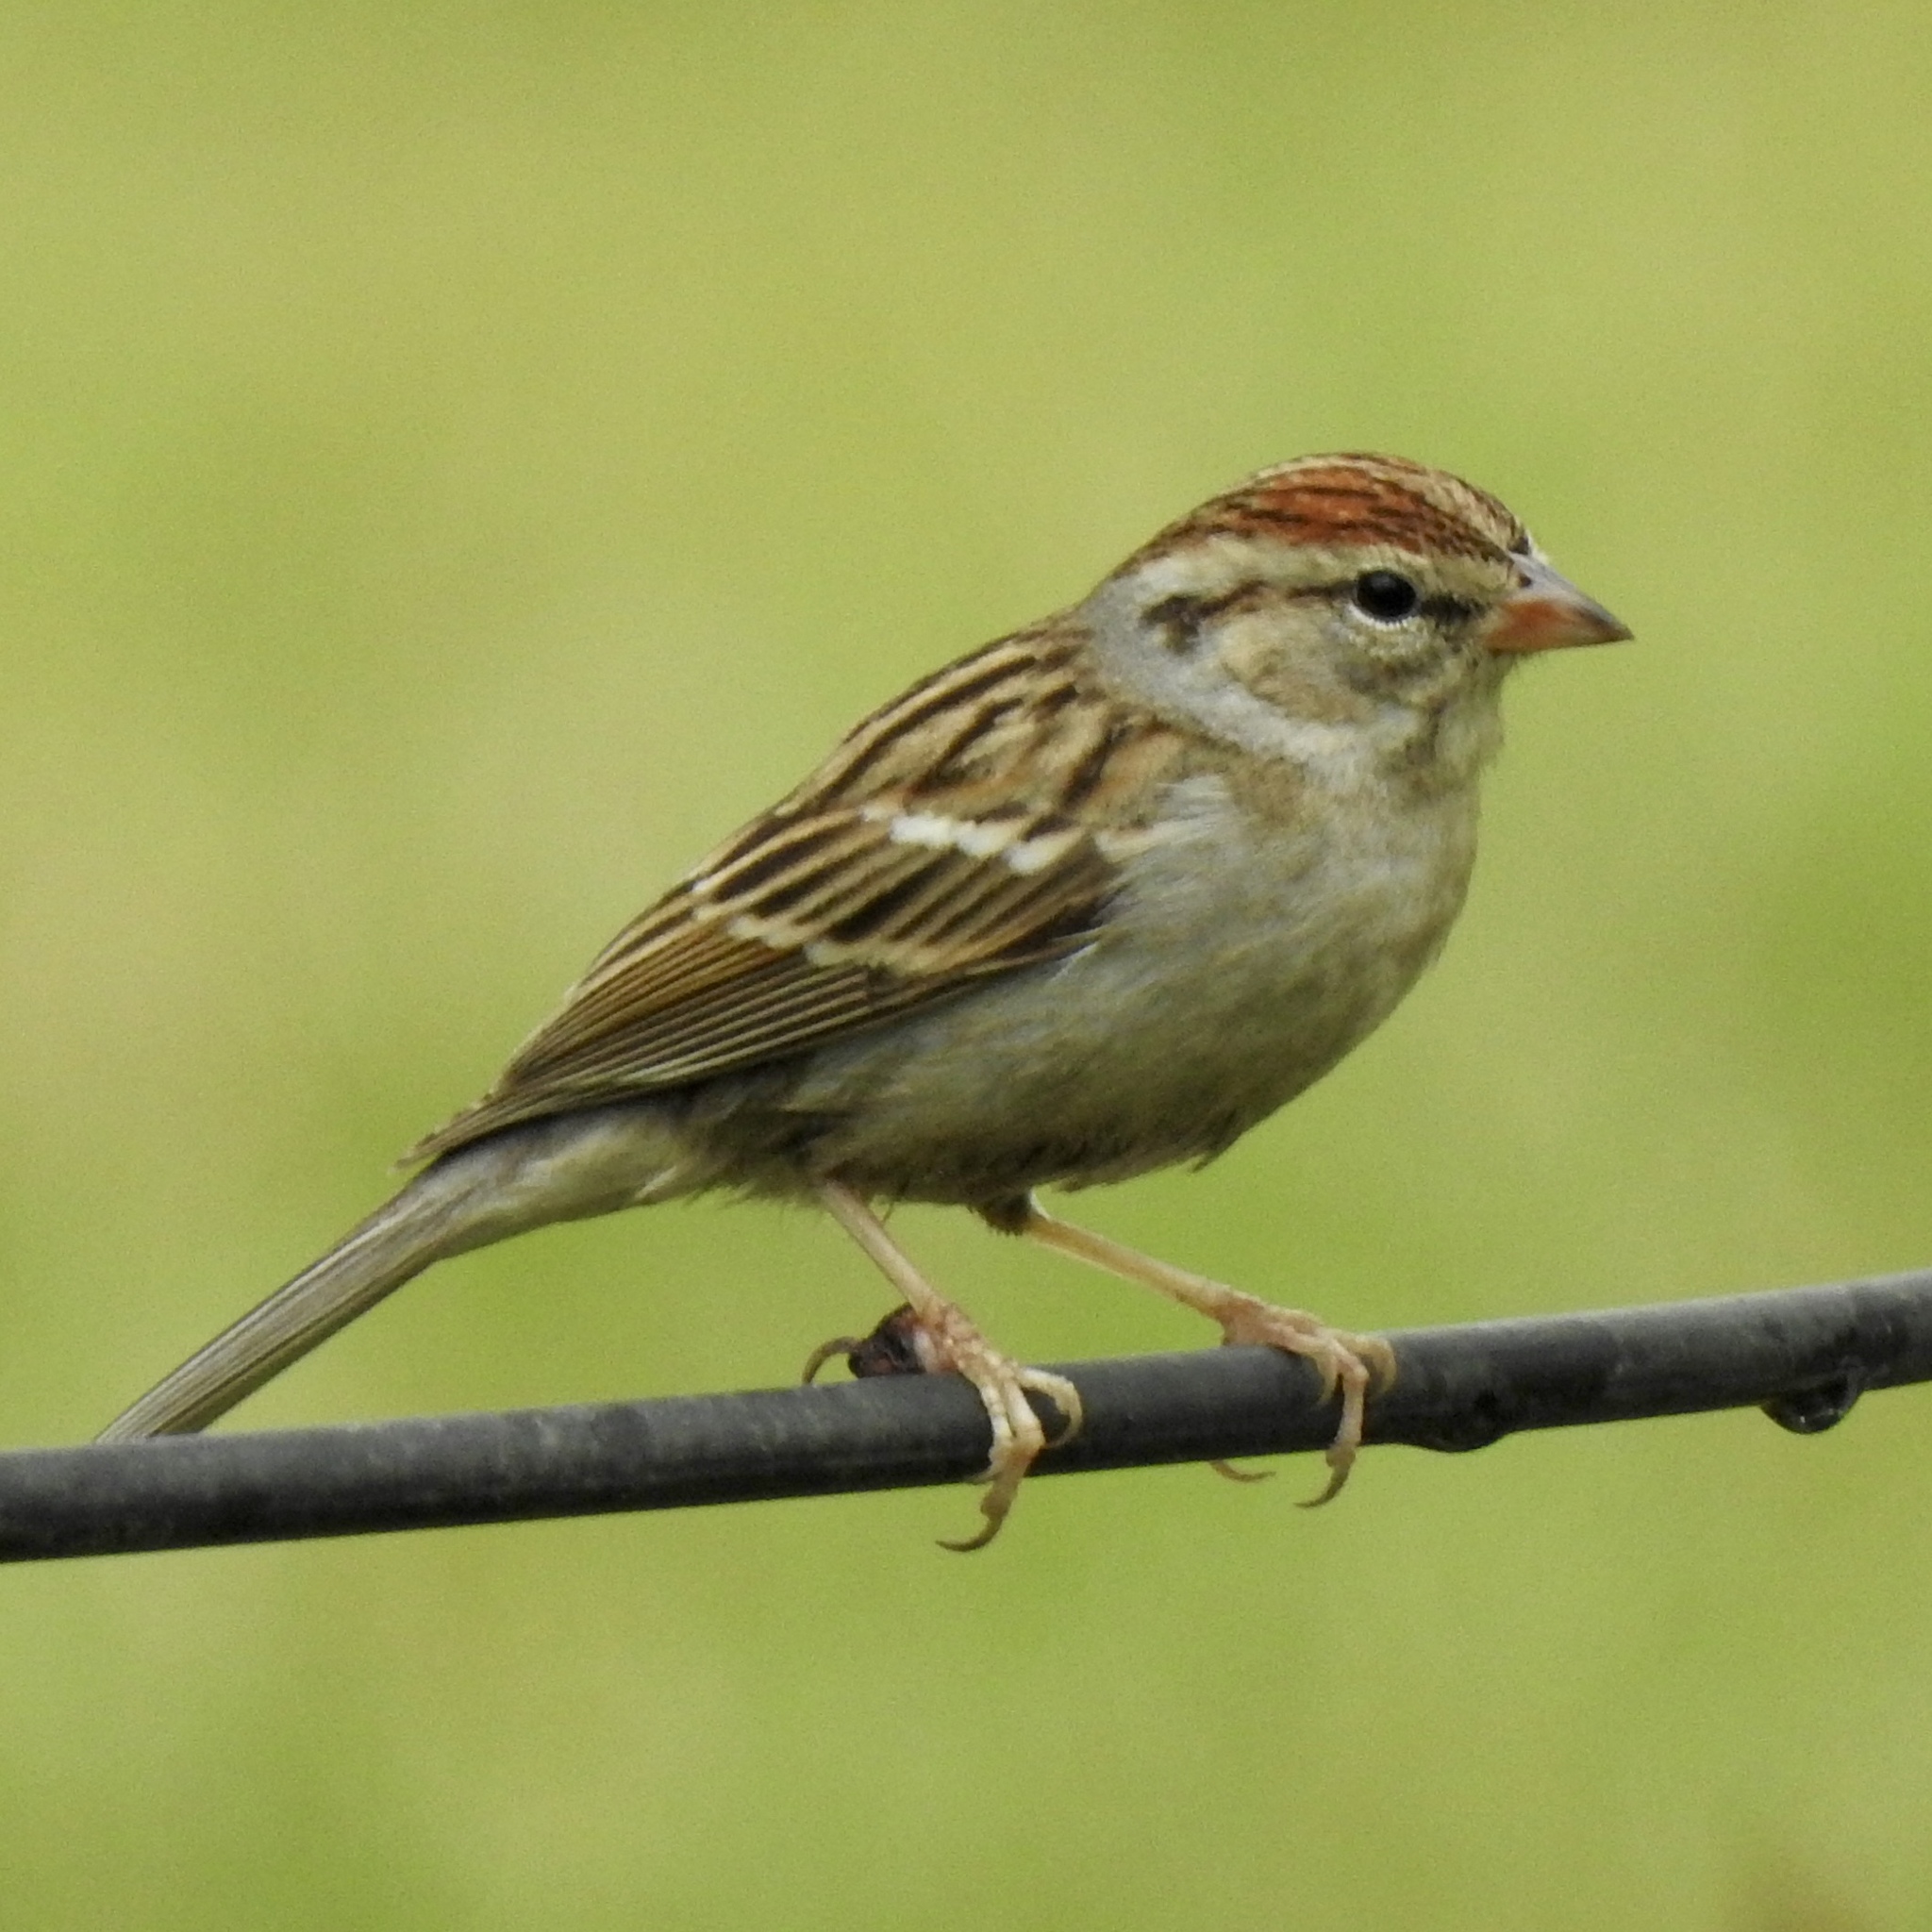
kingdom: Animalia
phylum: Chordata
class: Aves
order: Passeriformes
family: Passerellidae
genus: Spizella
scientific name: Spizella passerina
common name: Chipping sparrow
